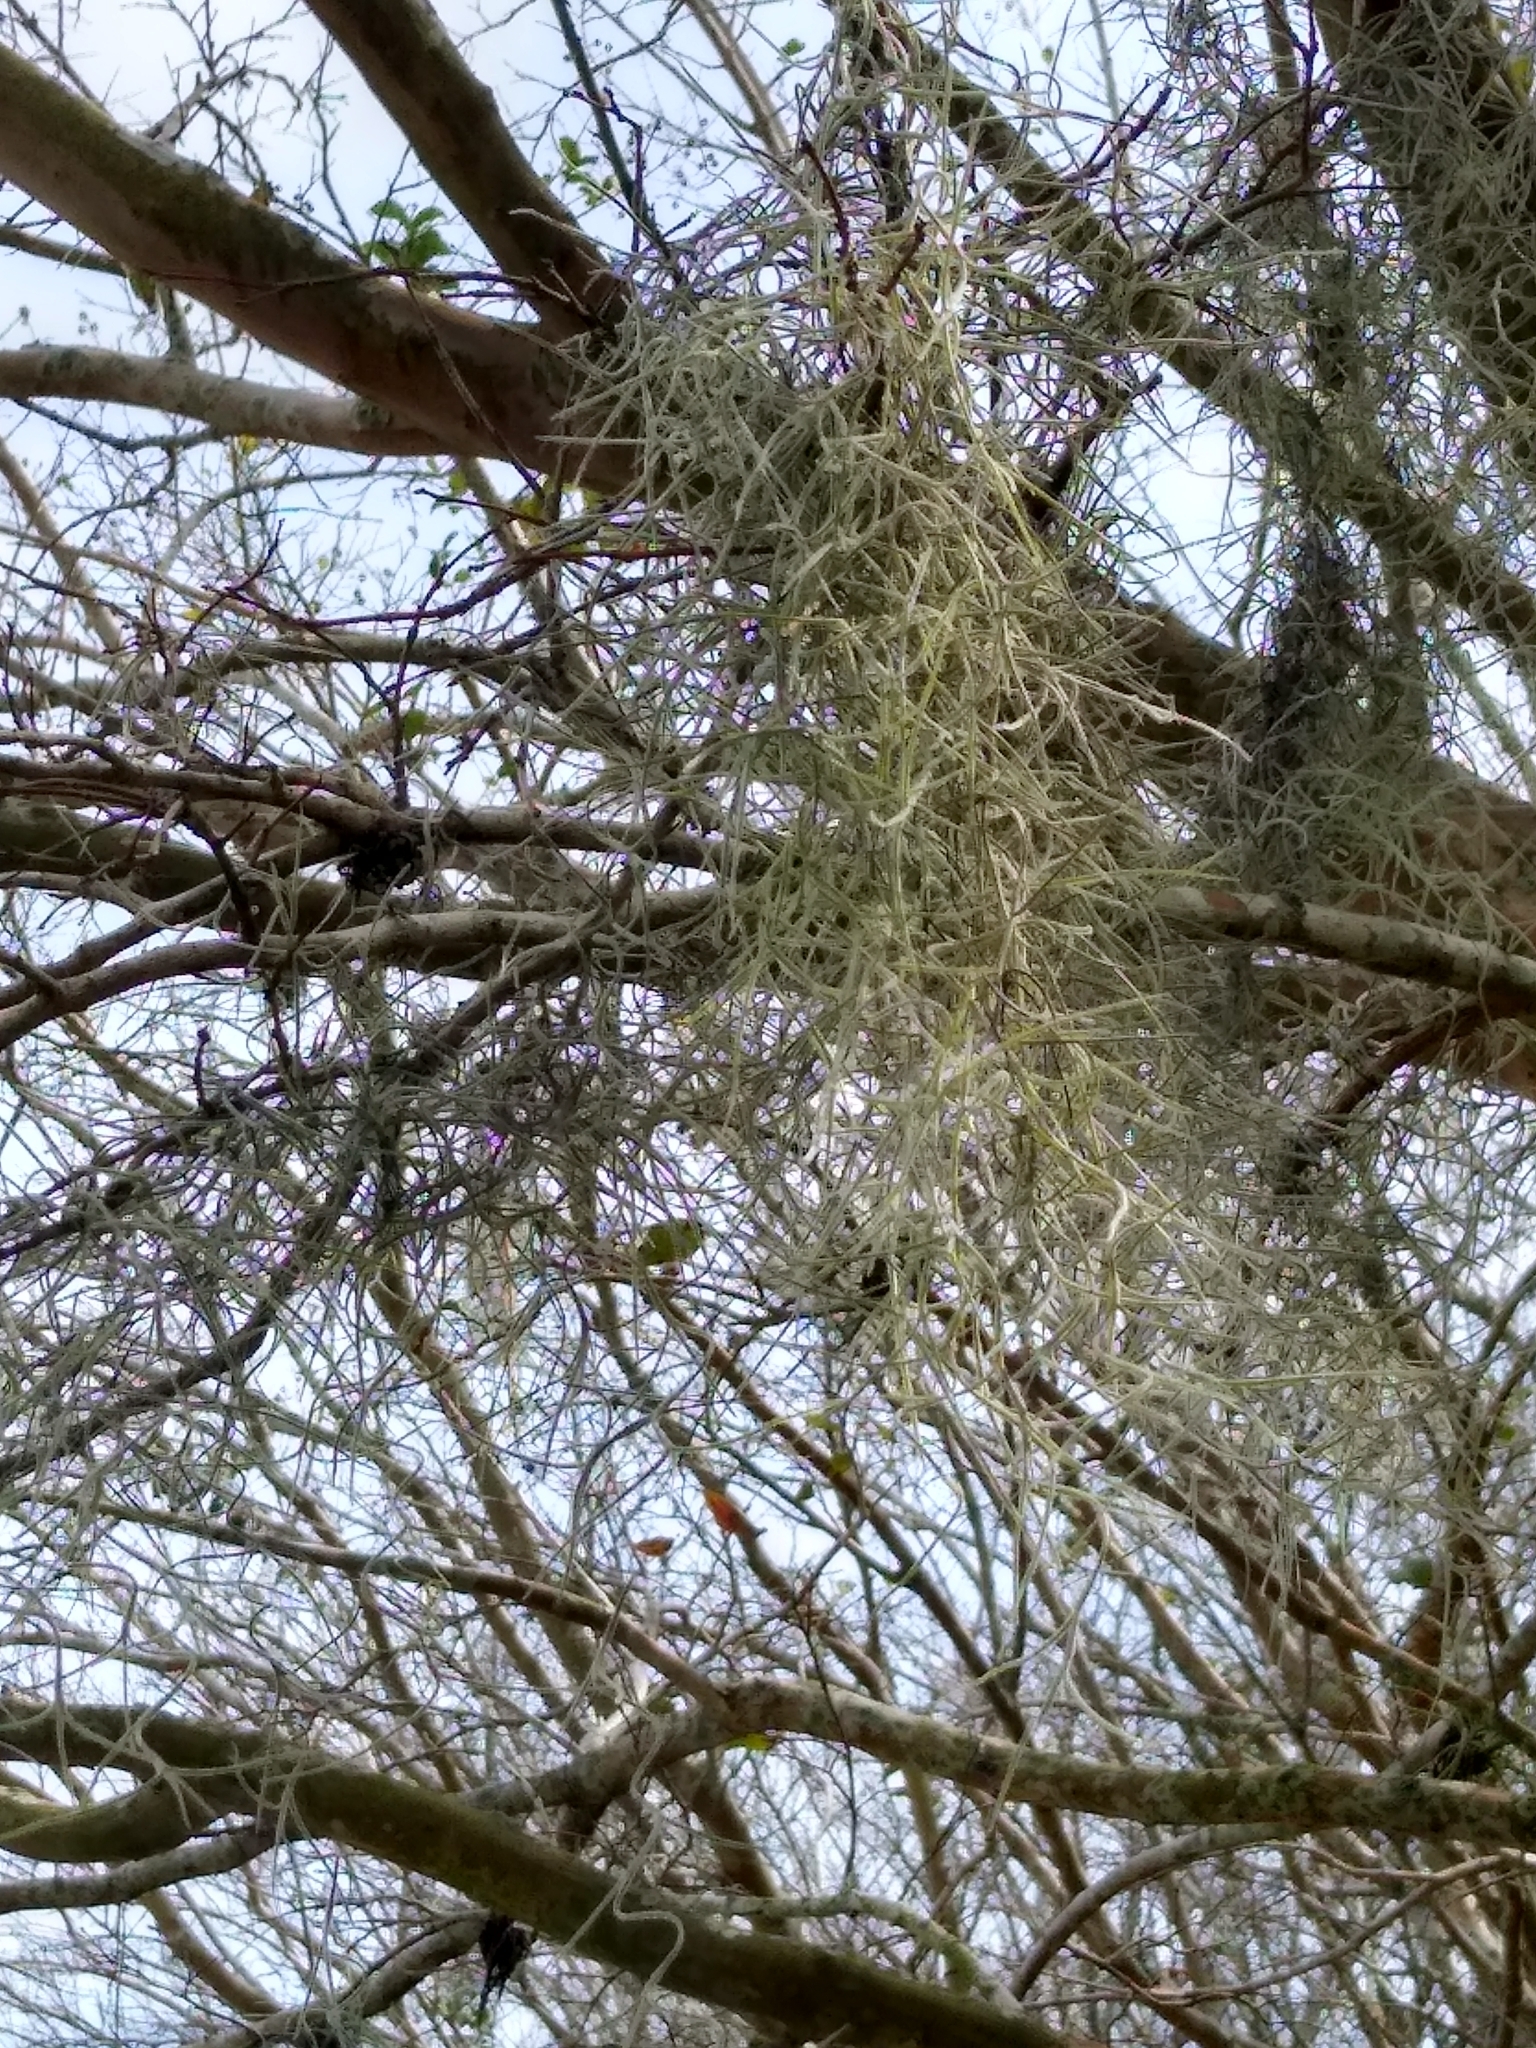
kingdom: Plantae
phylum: Tracheophyta
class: Liliopsida
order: Poales
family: Bromeliaceae
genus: Tillandsia
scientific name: Tillandsia usneoides
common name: Spanish moss
